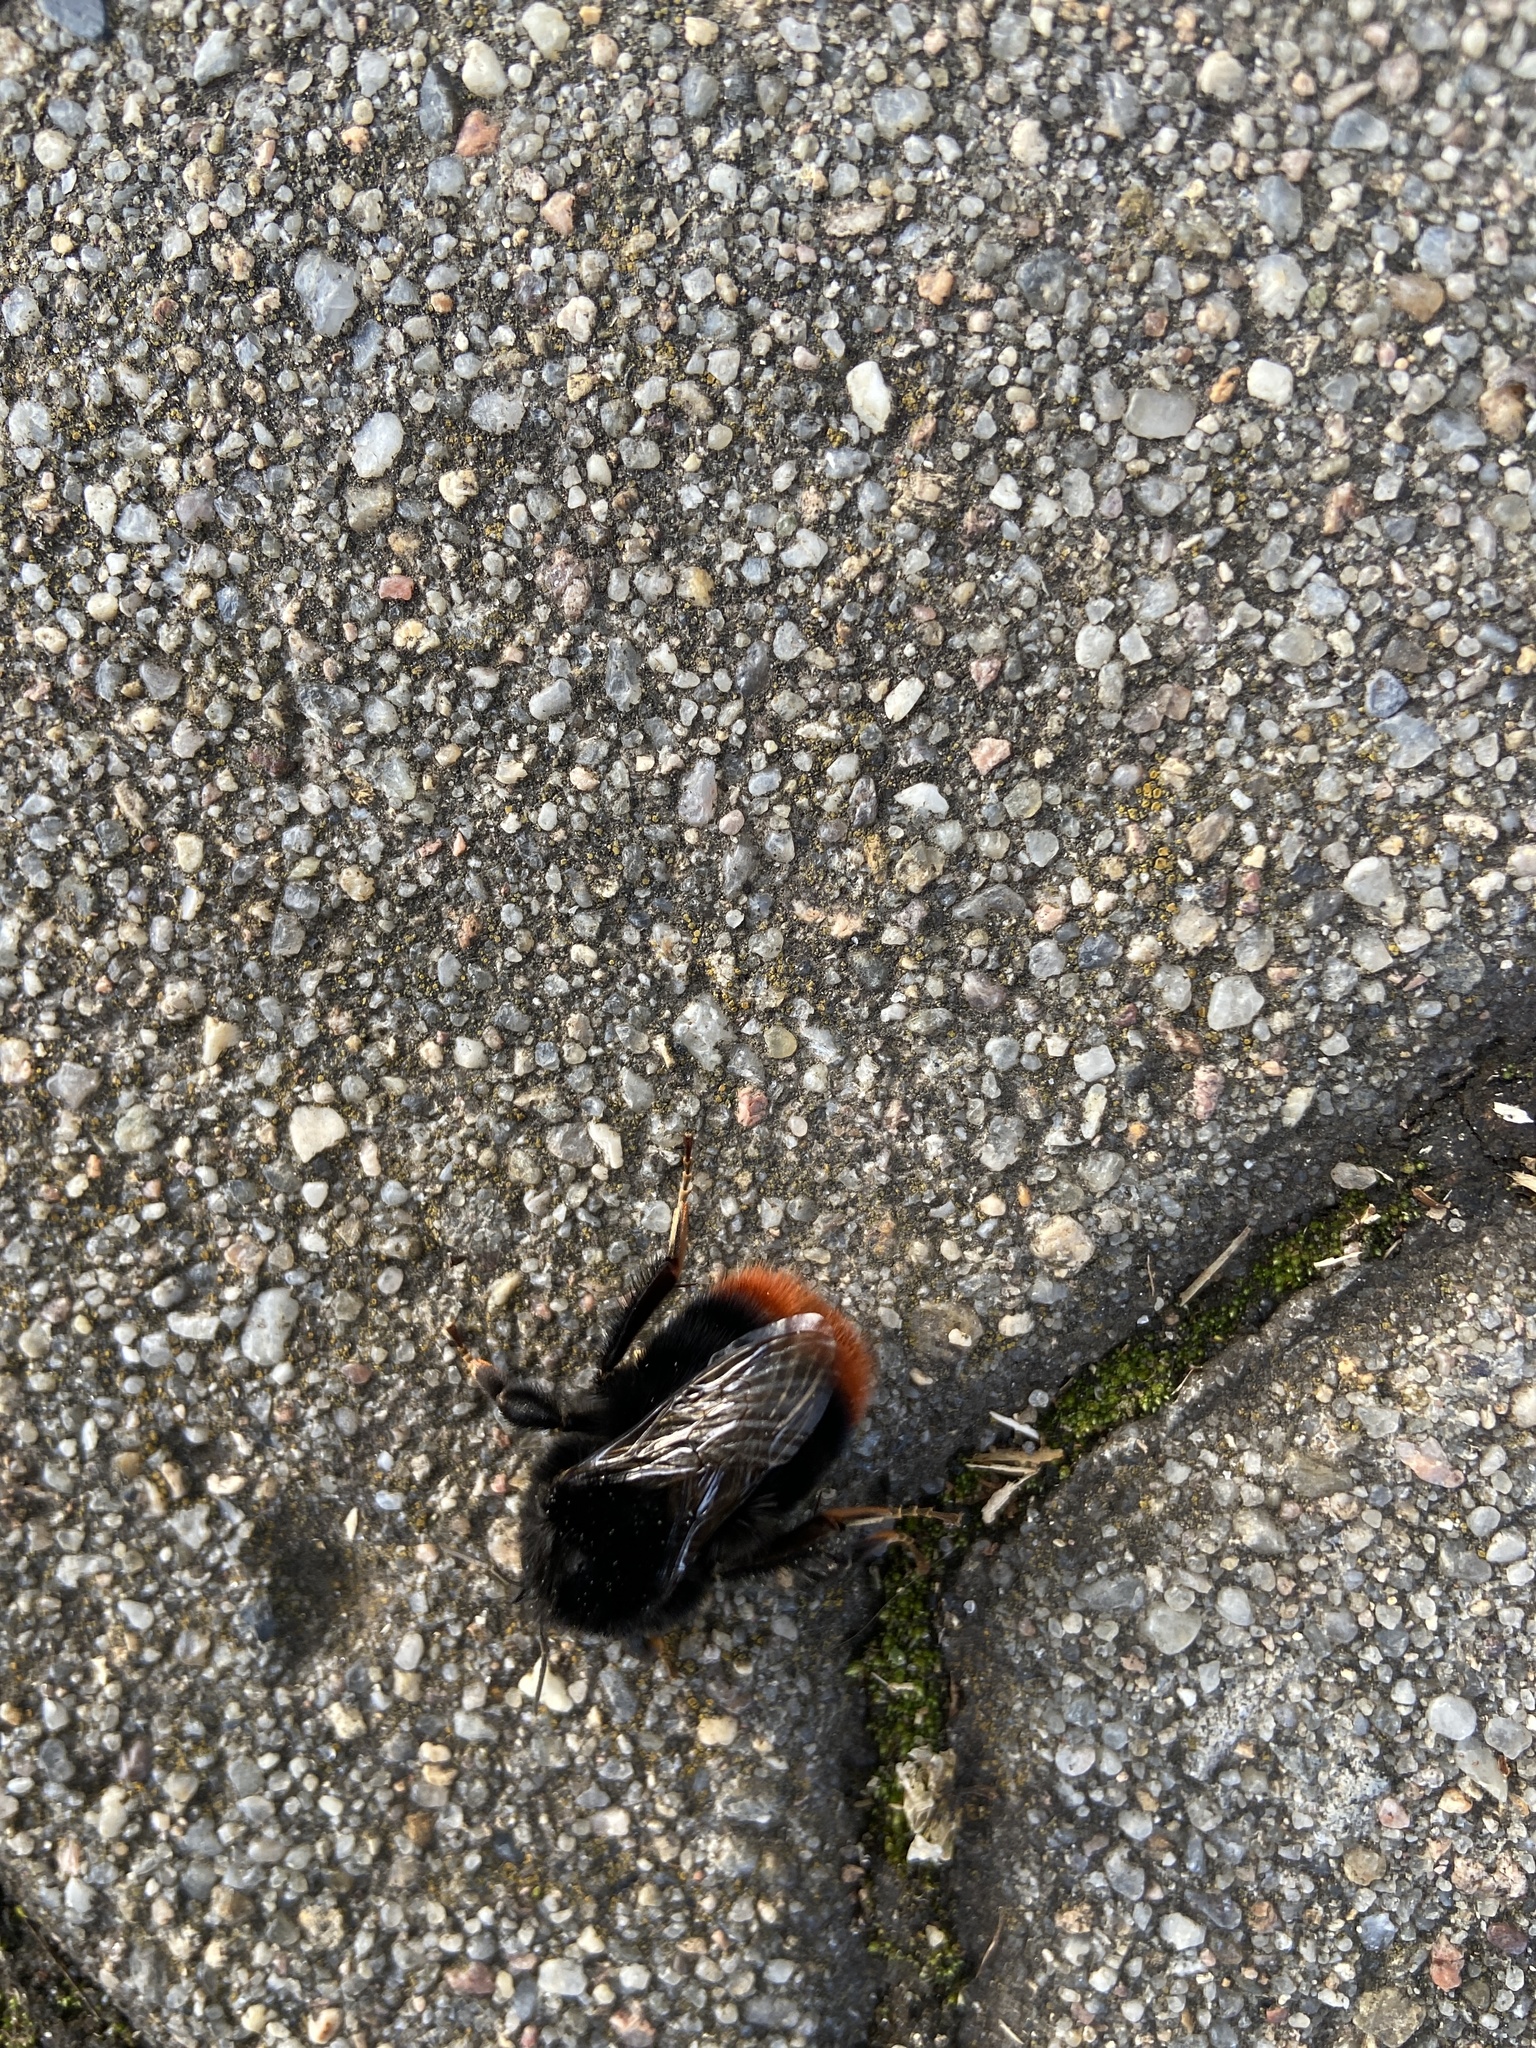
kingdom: Animalia
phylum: Arthropoda
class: Insecta
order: Hymenoptera
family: Apidae
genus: Bombus
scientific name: Bombus lapidarius
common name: Large red-tailed humble-bee
